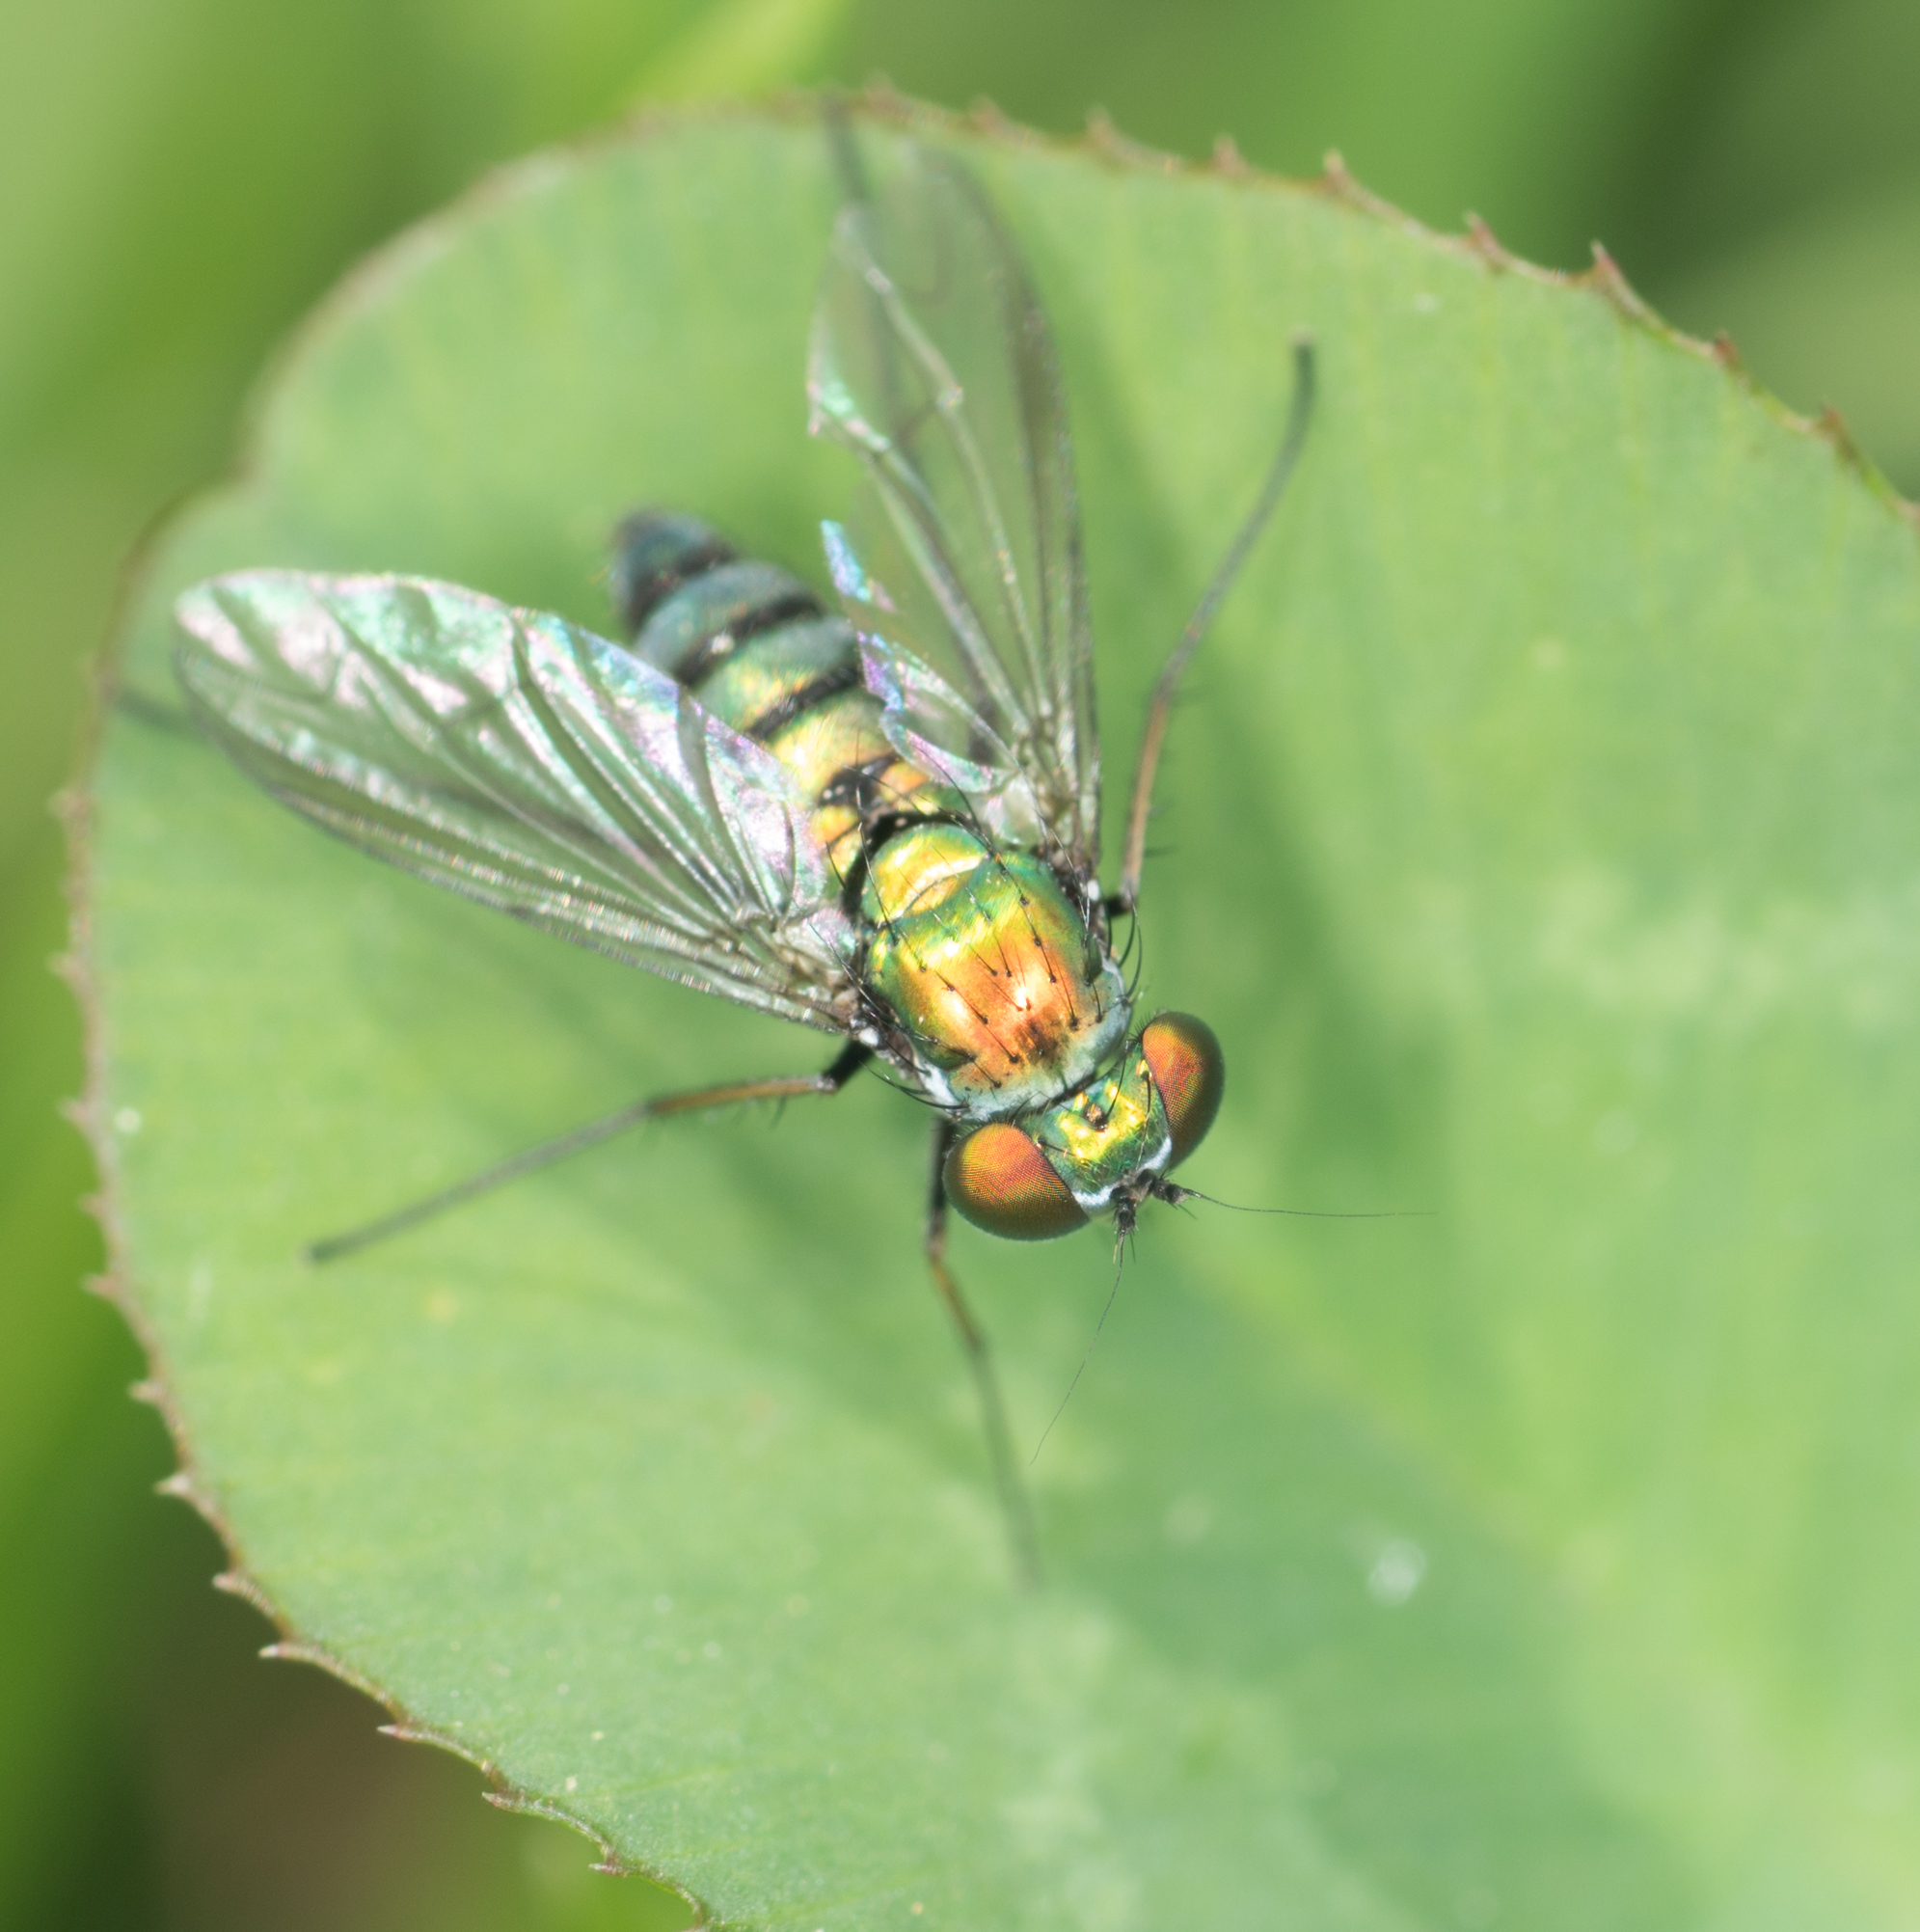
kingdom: Animalia
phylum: Arthropoda
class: Insecta
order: Diptera
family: Dolichopodidae
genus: Condylostylus
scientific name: Condylostylus longicornis
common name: Long-legged fly
